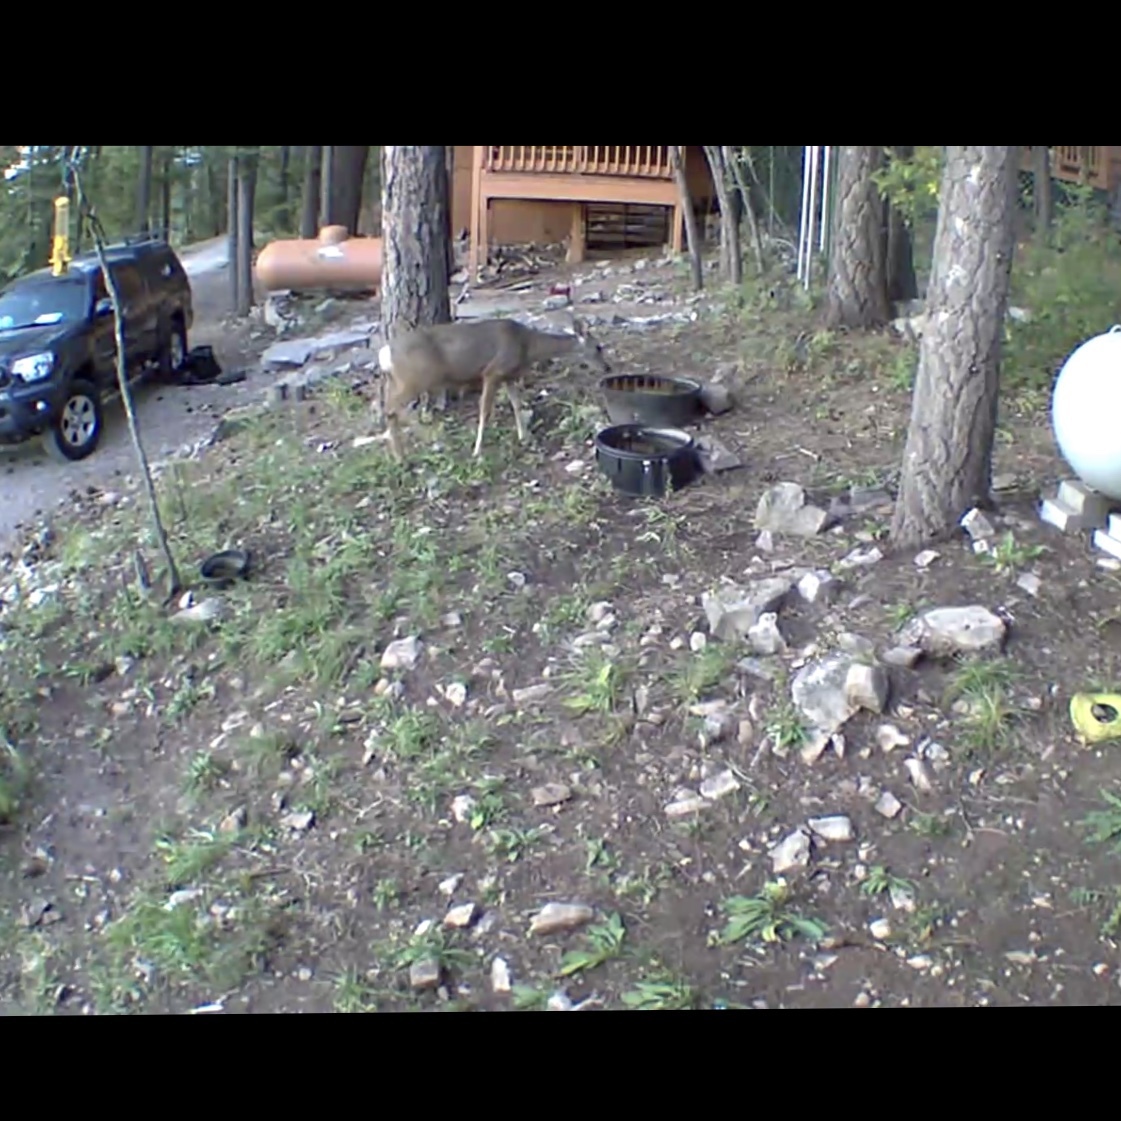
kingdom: Animalia
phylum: Chordata
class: Mammalia
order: Artiodactyla
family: Cervidae
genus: Odocoileus
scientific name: Odocoileus hemionus
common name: Mule deer
